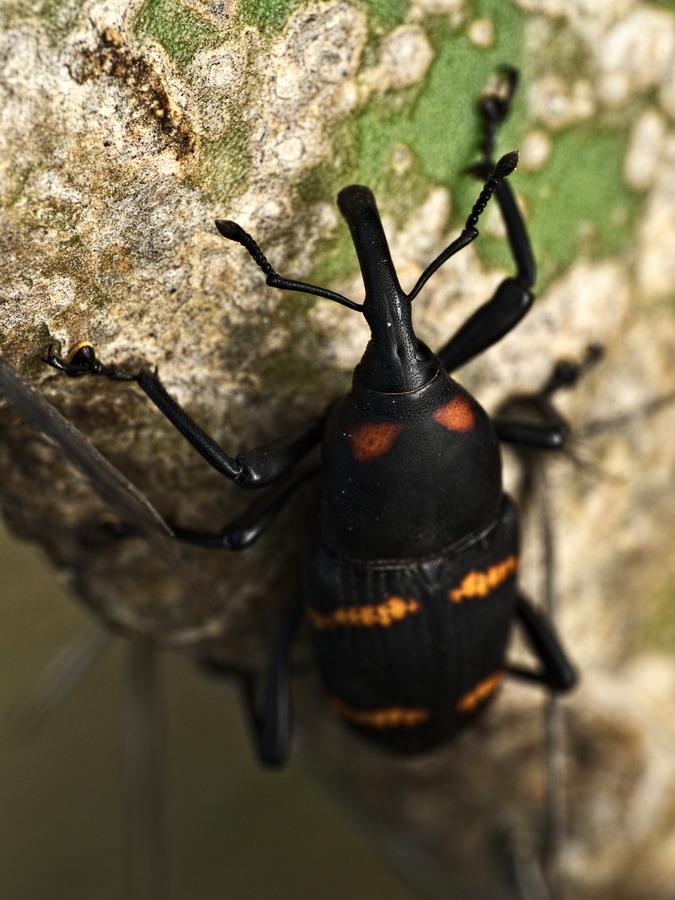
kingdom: Animalia
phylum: Arthropoda
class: Insecta
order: Coleoptera
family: Dryophthoridae
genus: Cactophagus
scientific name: Cactophagus spinolae
